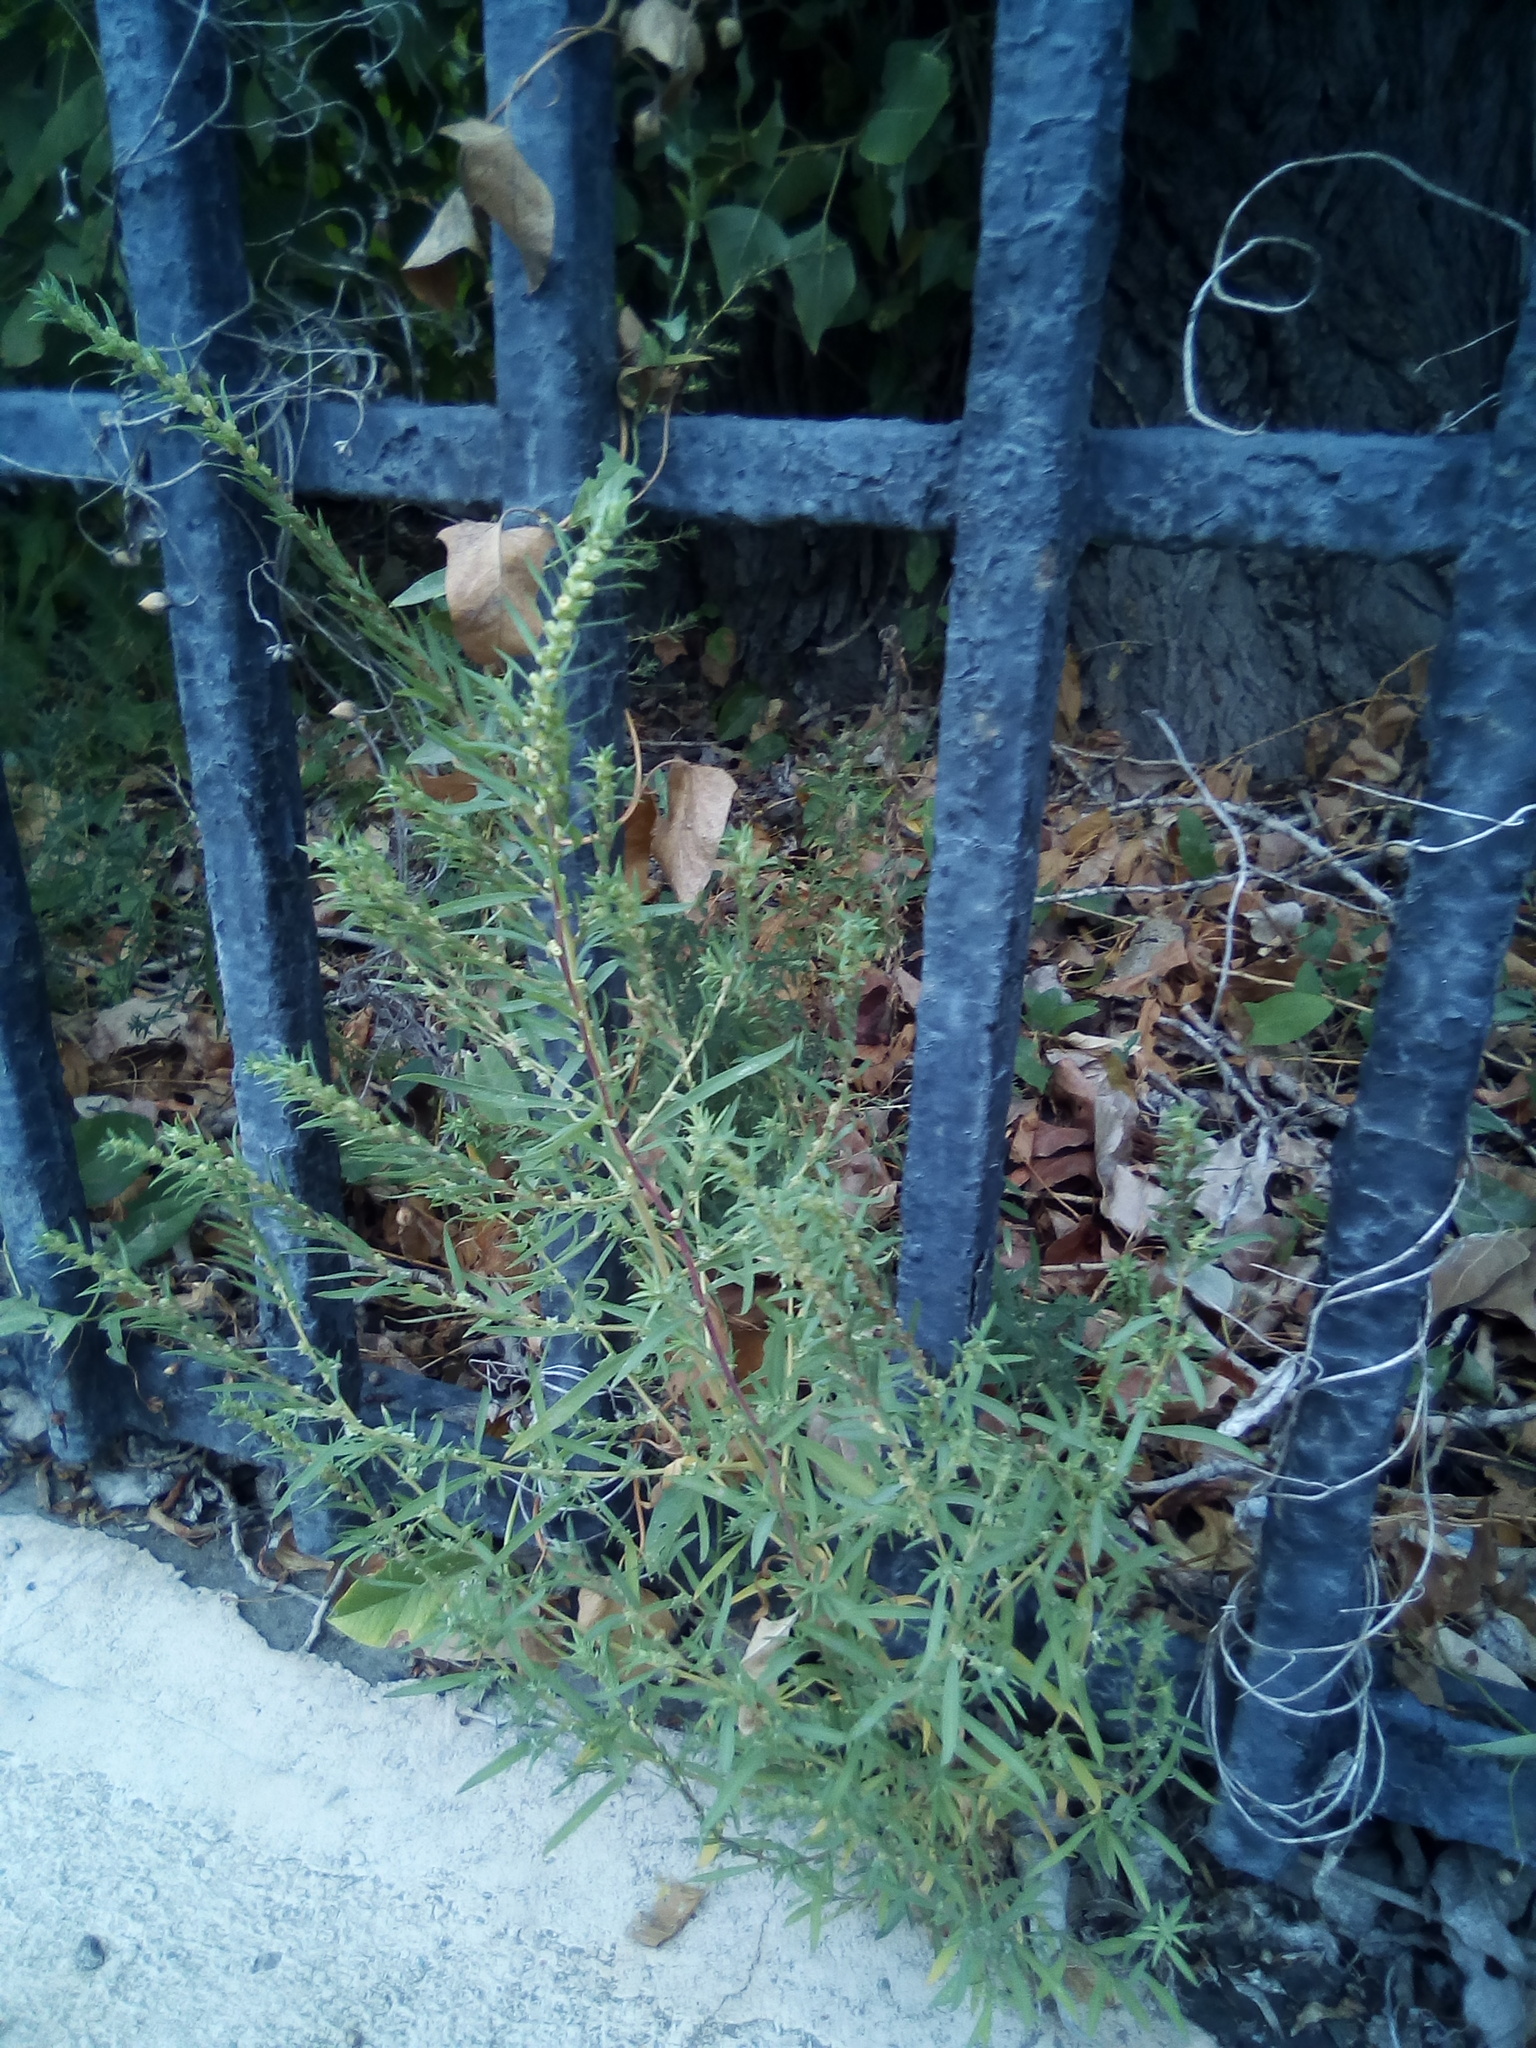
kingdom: Plantae
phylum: Tracheophyta
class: Magnoliopsida
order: Caryophyllales
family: Amaranthaceae
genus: Bassia
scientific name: Bassia scoparia
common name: Belvedere
